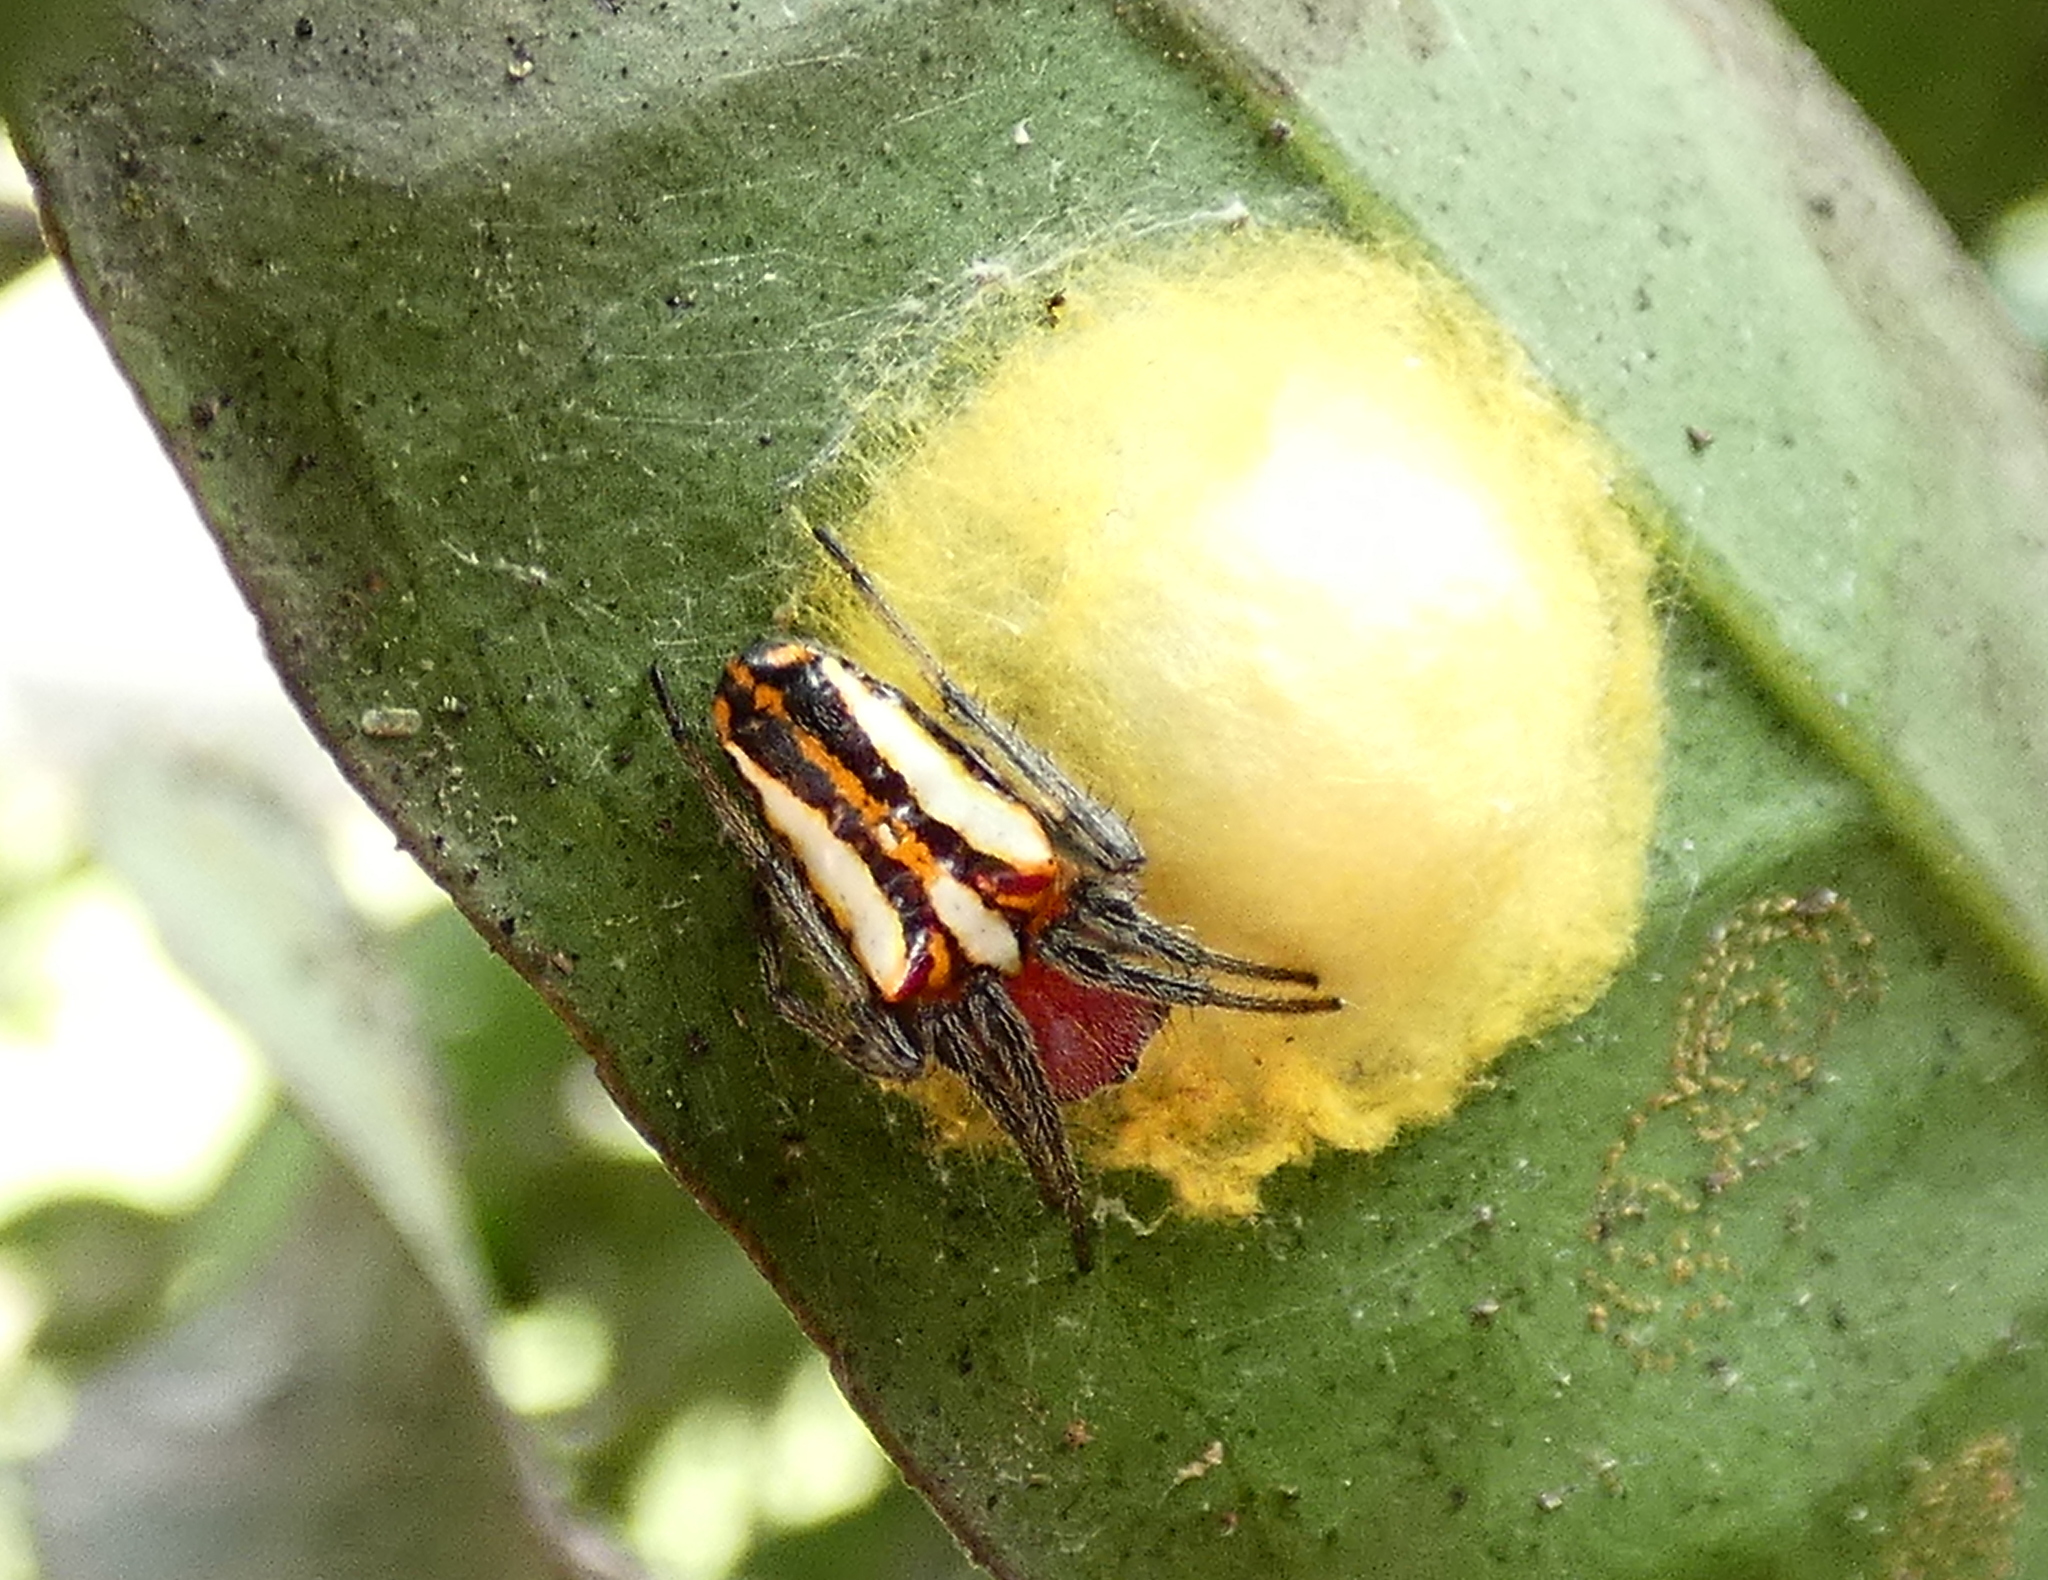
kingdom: Animalia
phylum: Arthropoda
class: Arachnida
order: Araneae
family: Araneidae
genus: Alpaida
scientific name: Alpaida bicornuta
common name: Orb weavers
